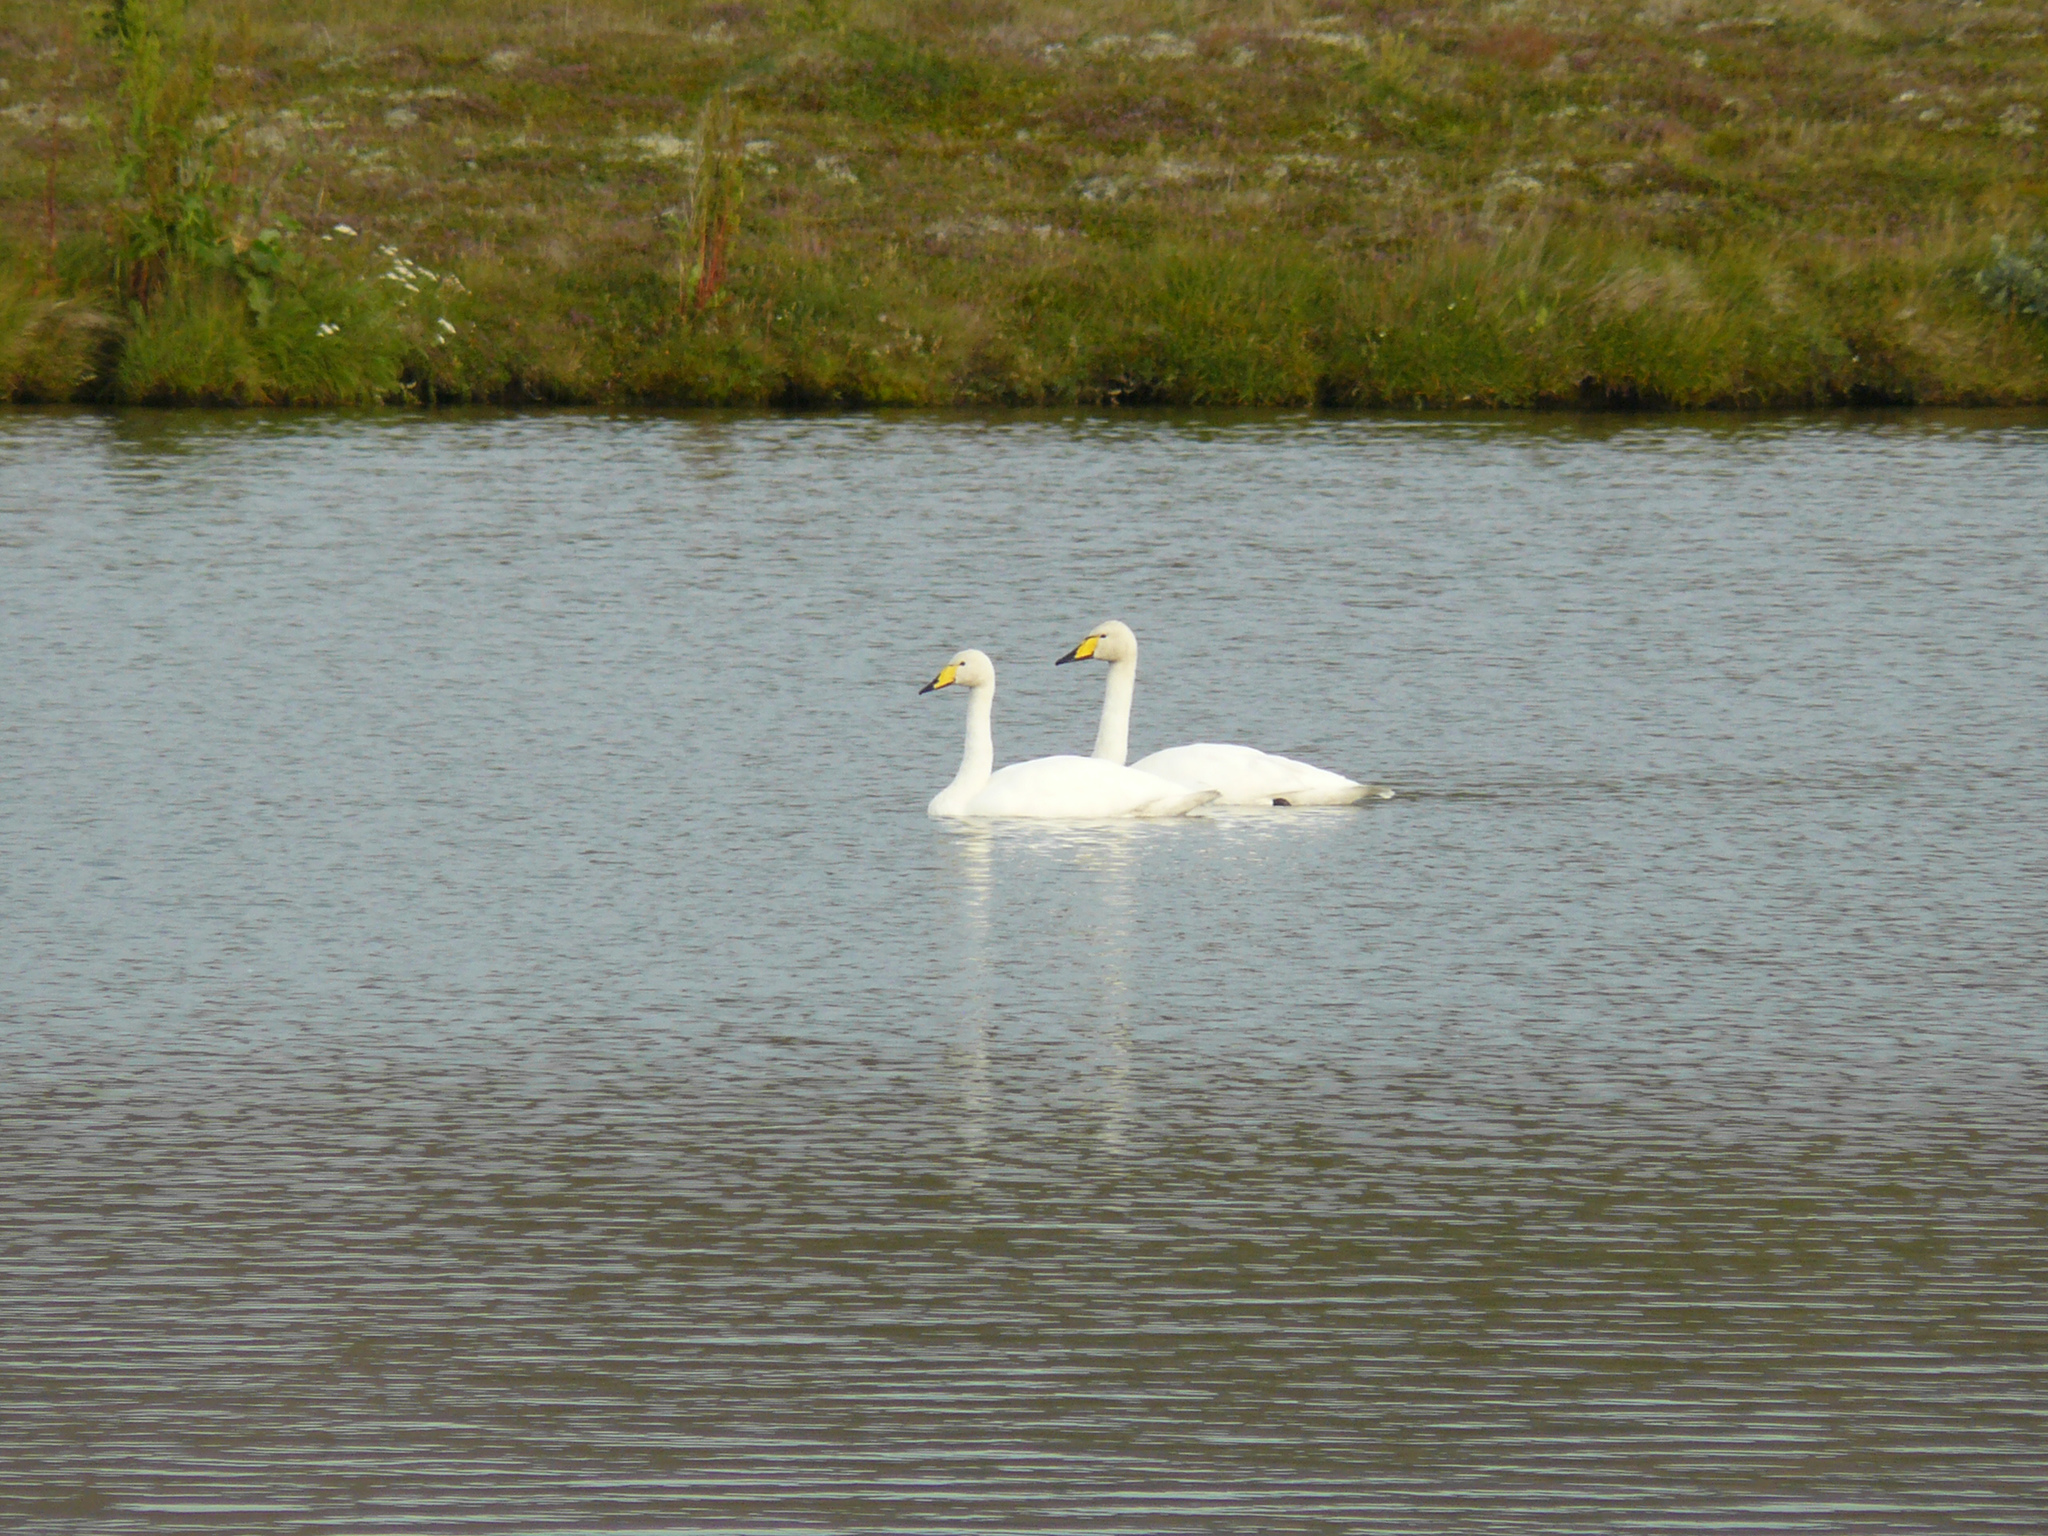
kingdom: Animalia
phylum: Chordata
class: Aves
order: Anseriformes
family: Anatidae
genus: Cygnus
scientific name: Cygnus cygnus
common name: Whooper swan
